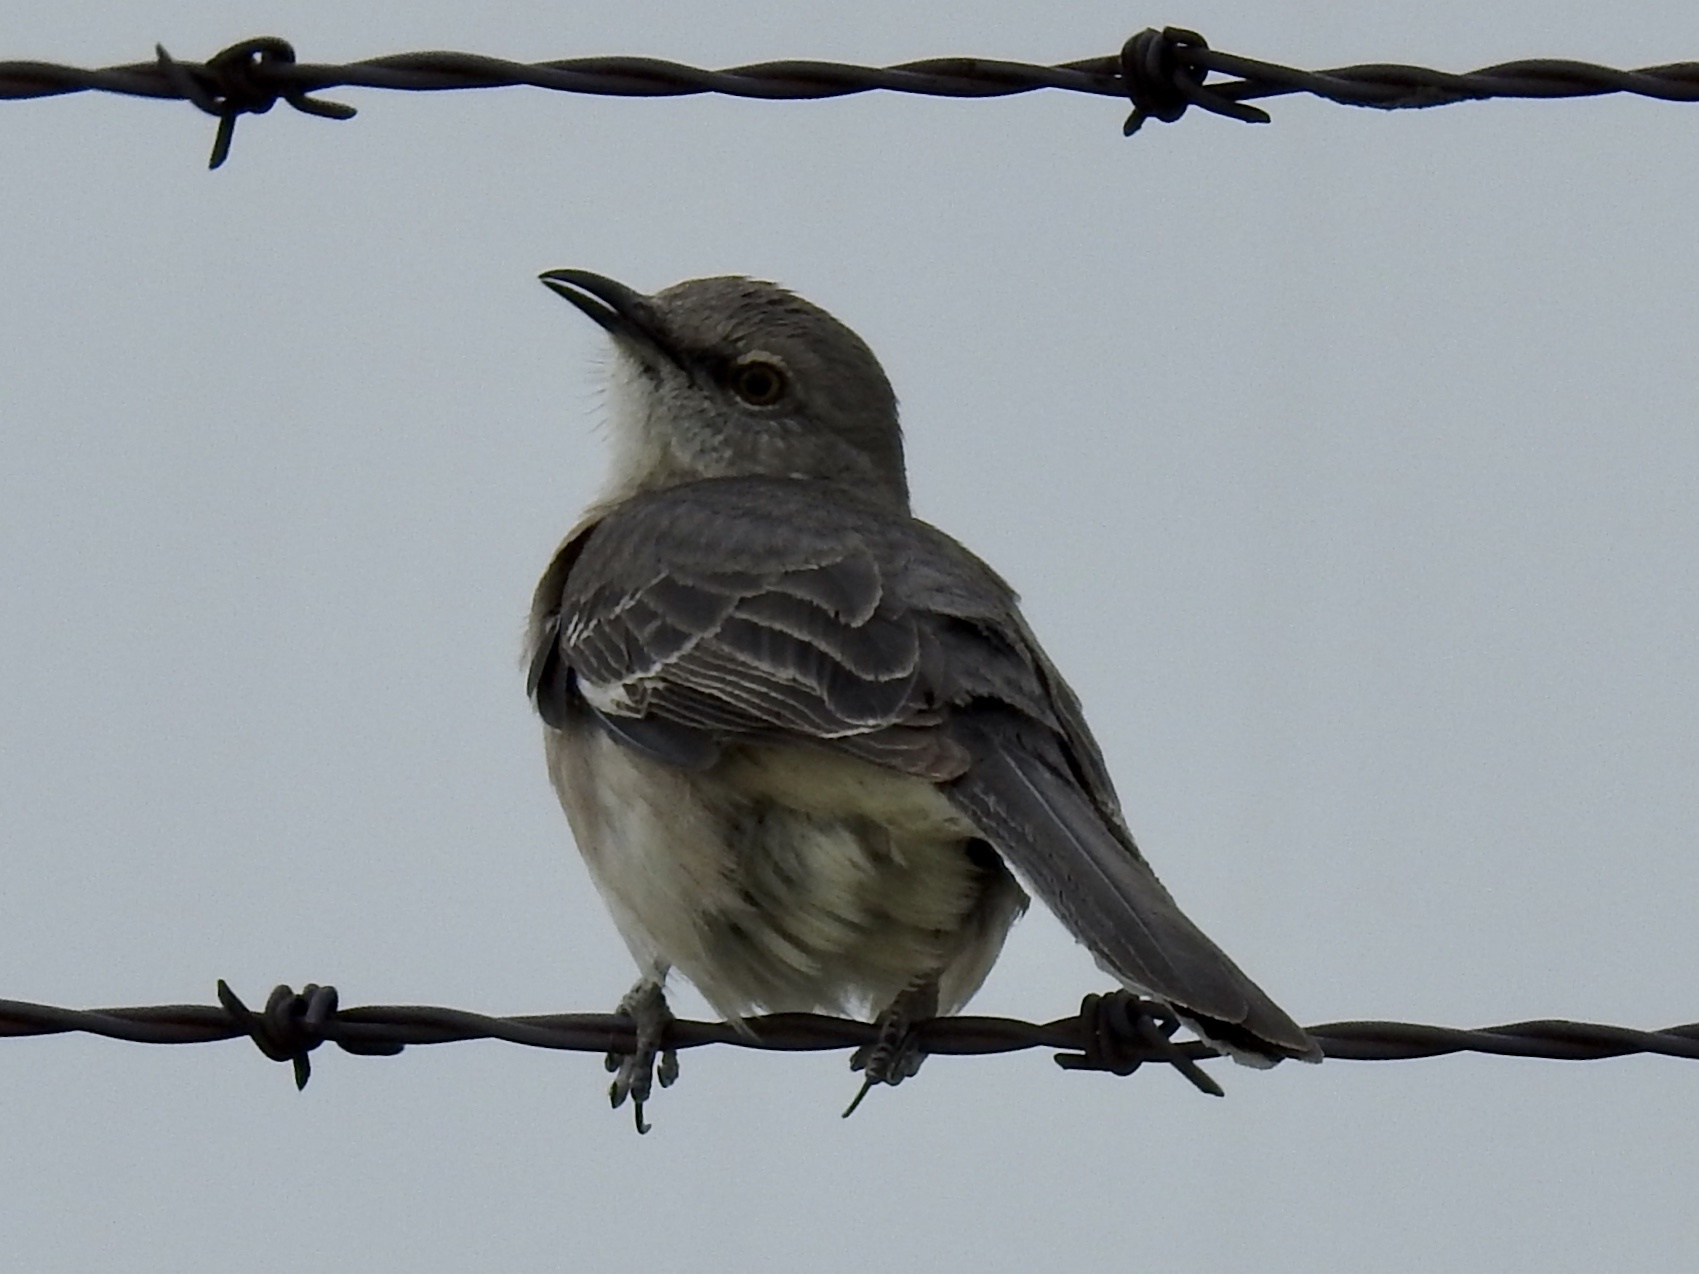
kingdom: Animalia
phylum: Chordata
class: Aves
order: Passeriformes
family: Mimidae
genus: Mimus
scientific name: Mimus polyglottos
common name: Northern mockingbird
